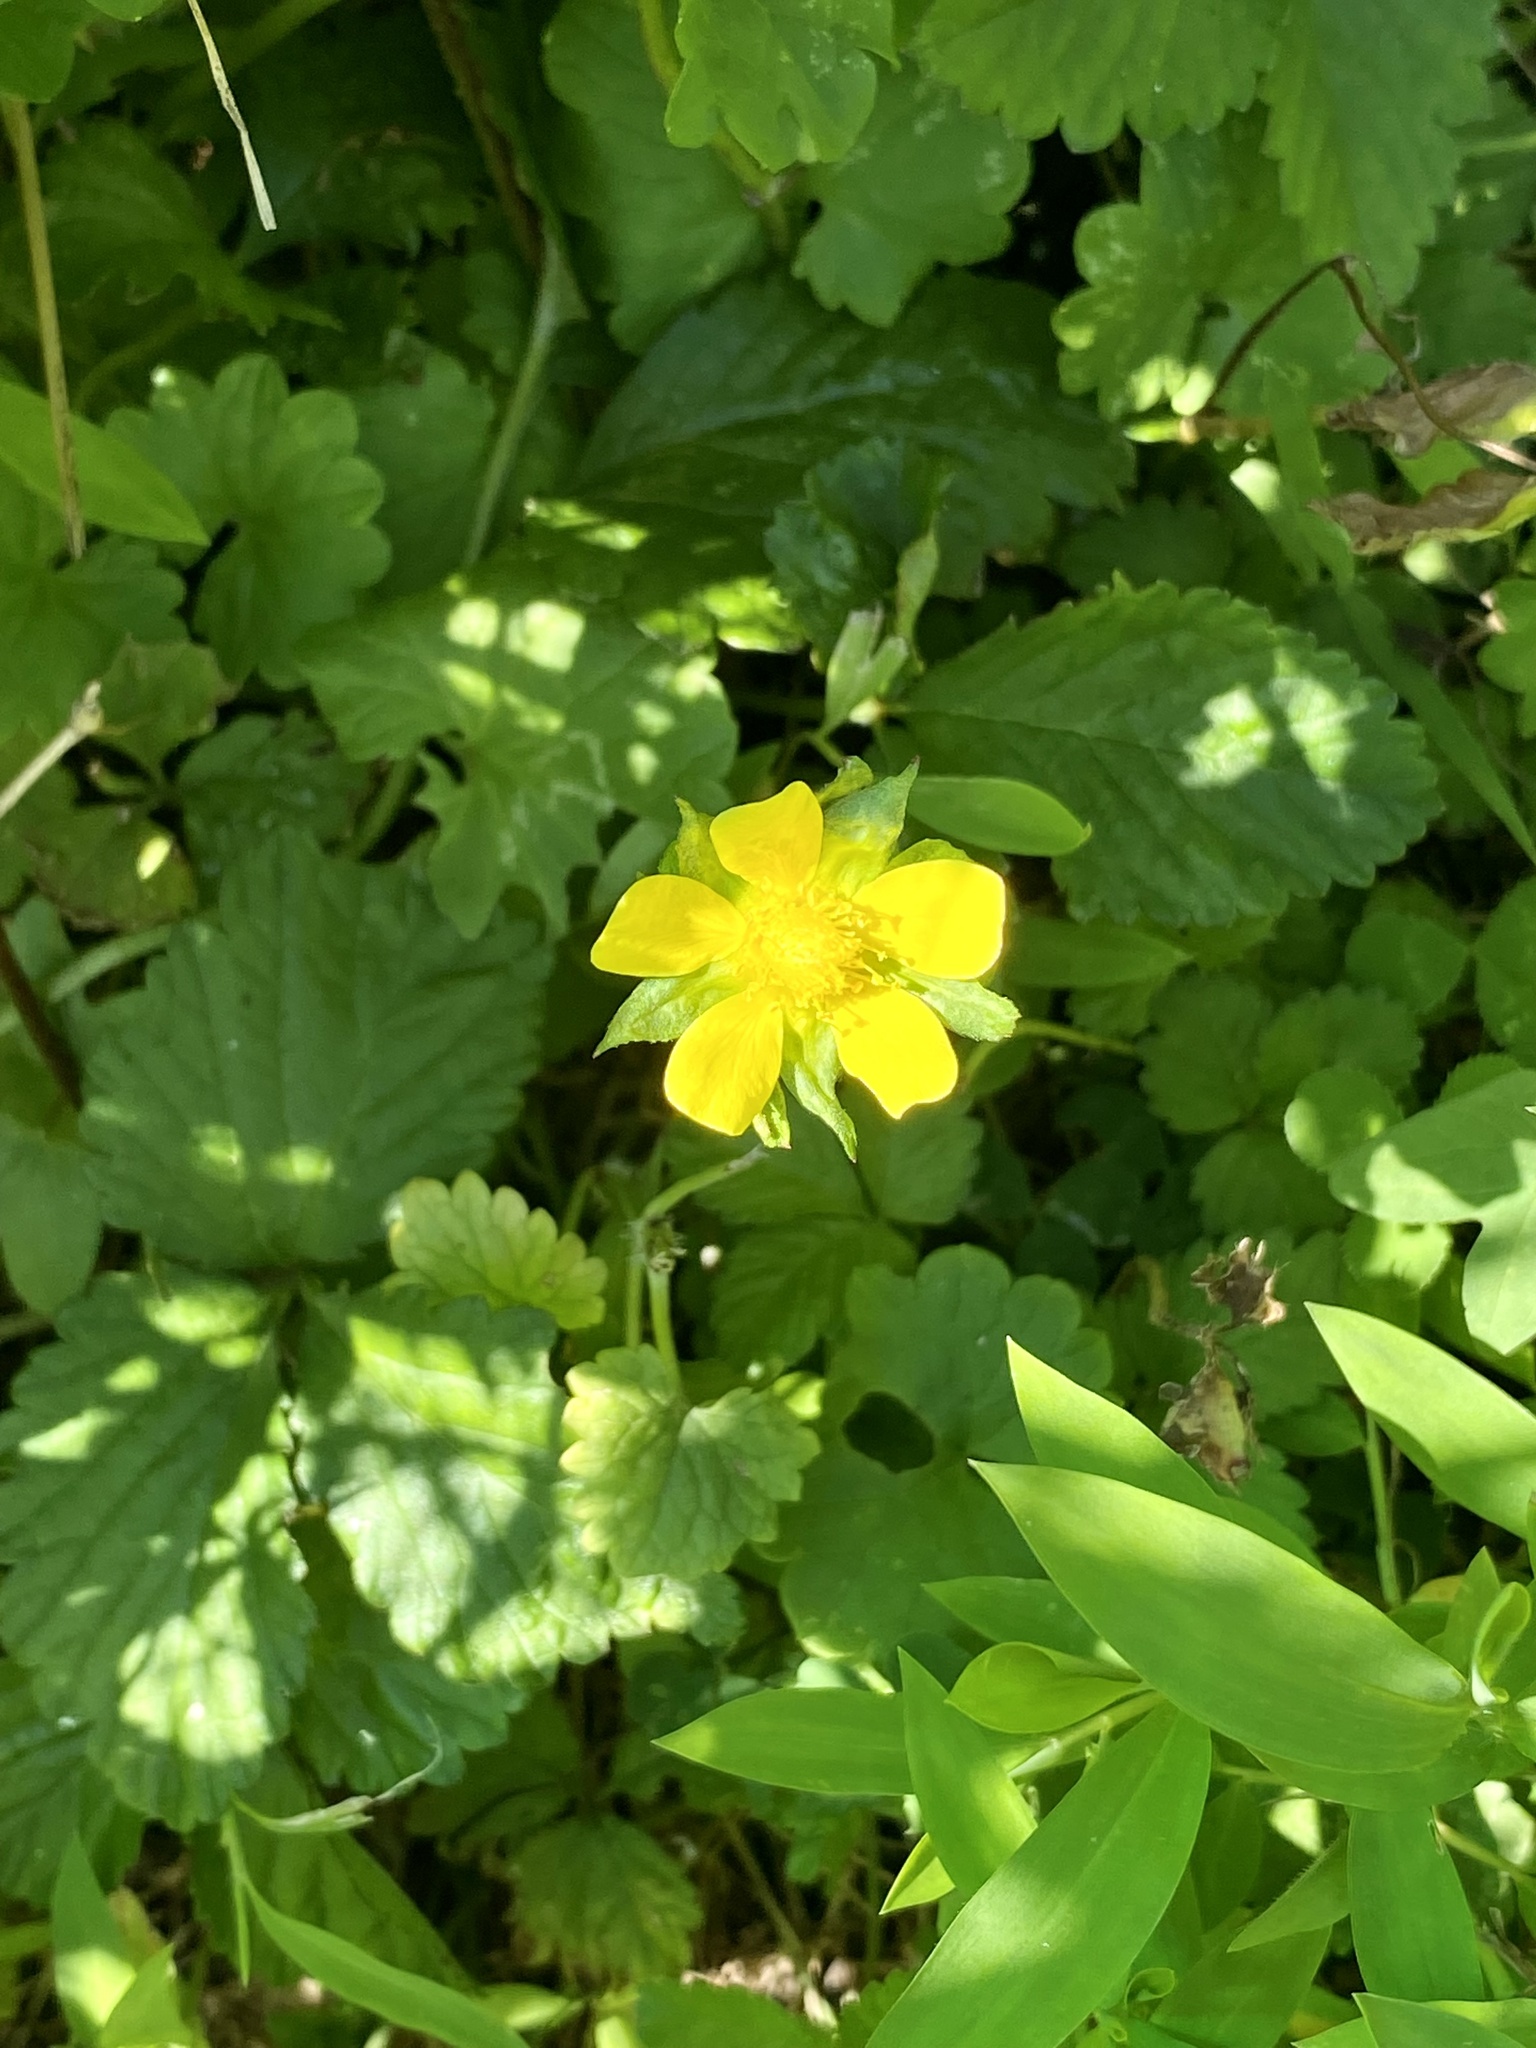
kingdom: Plantae
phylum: Tracheophyta
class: Magnoliopsida
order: Rosales
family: Rosaceae
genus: Potentilla
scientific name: Potentilla indica
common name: Yellow-flowered strawberry
